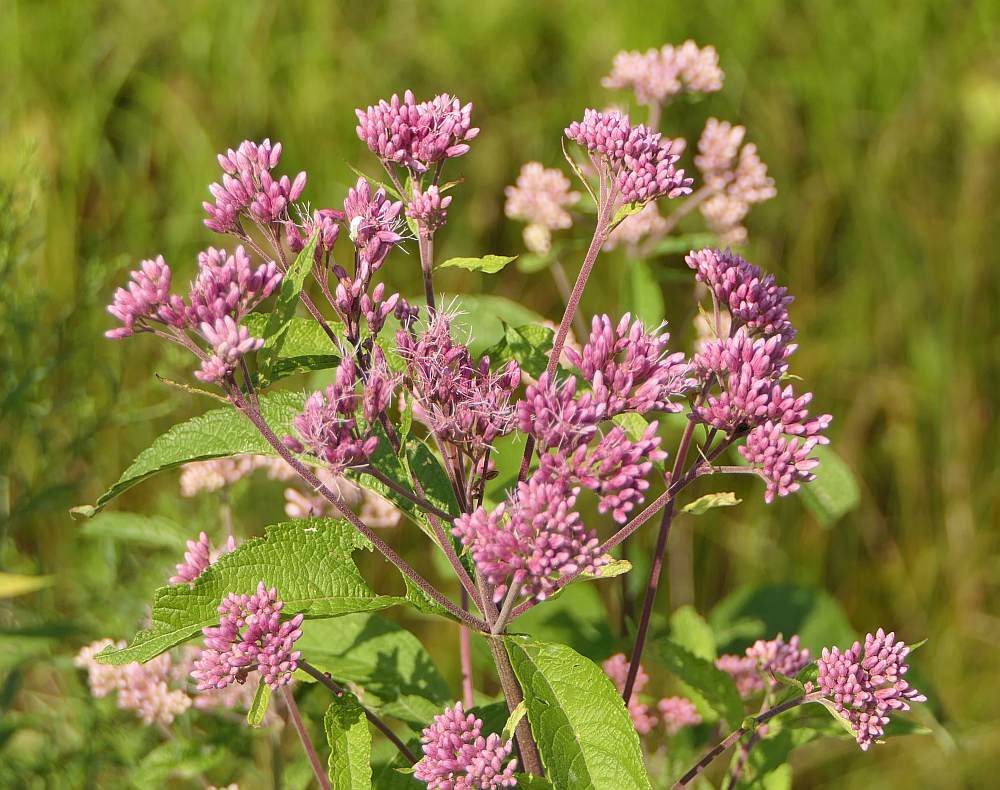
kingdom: Plantae
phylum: Tracheophyta
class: Magnoliopsida
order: Asterales
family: Asteraceae
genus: Eutrochium
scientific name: Eutrochium maculatum
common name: Spotted joe pye weed
